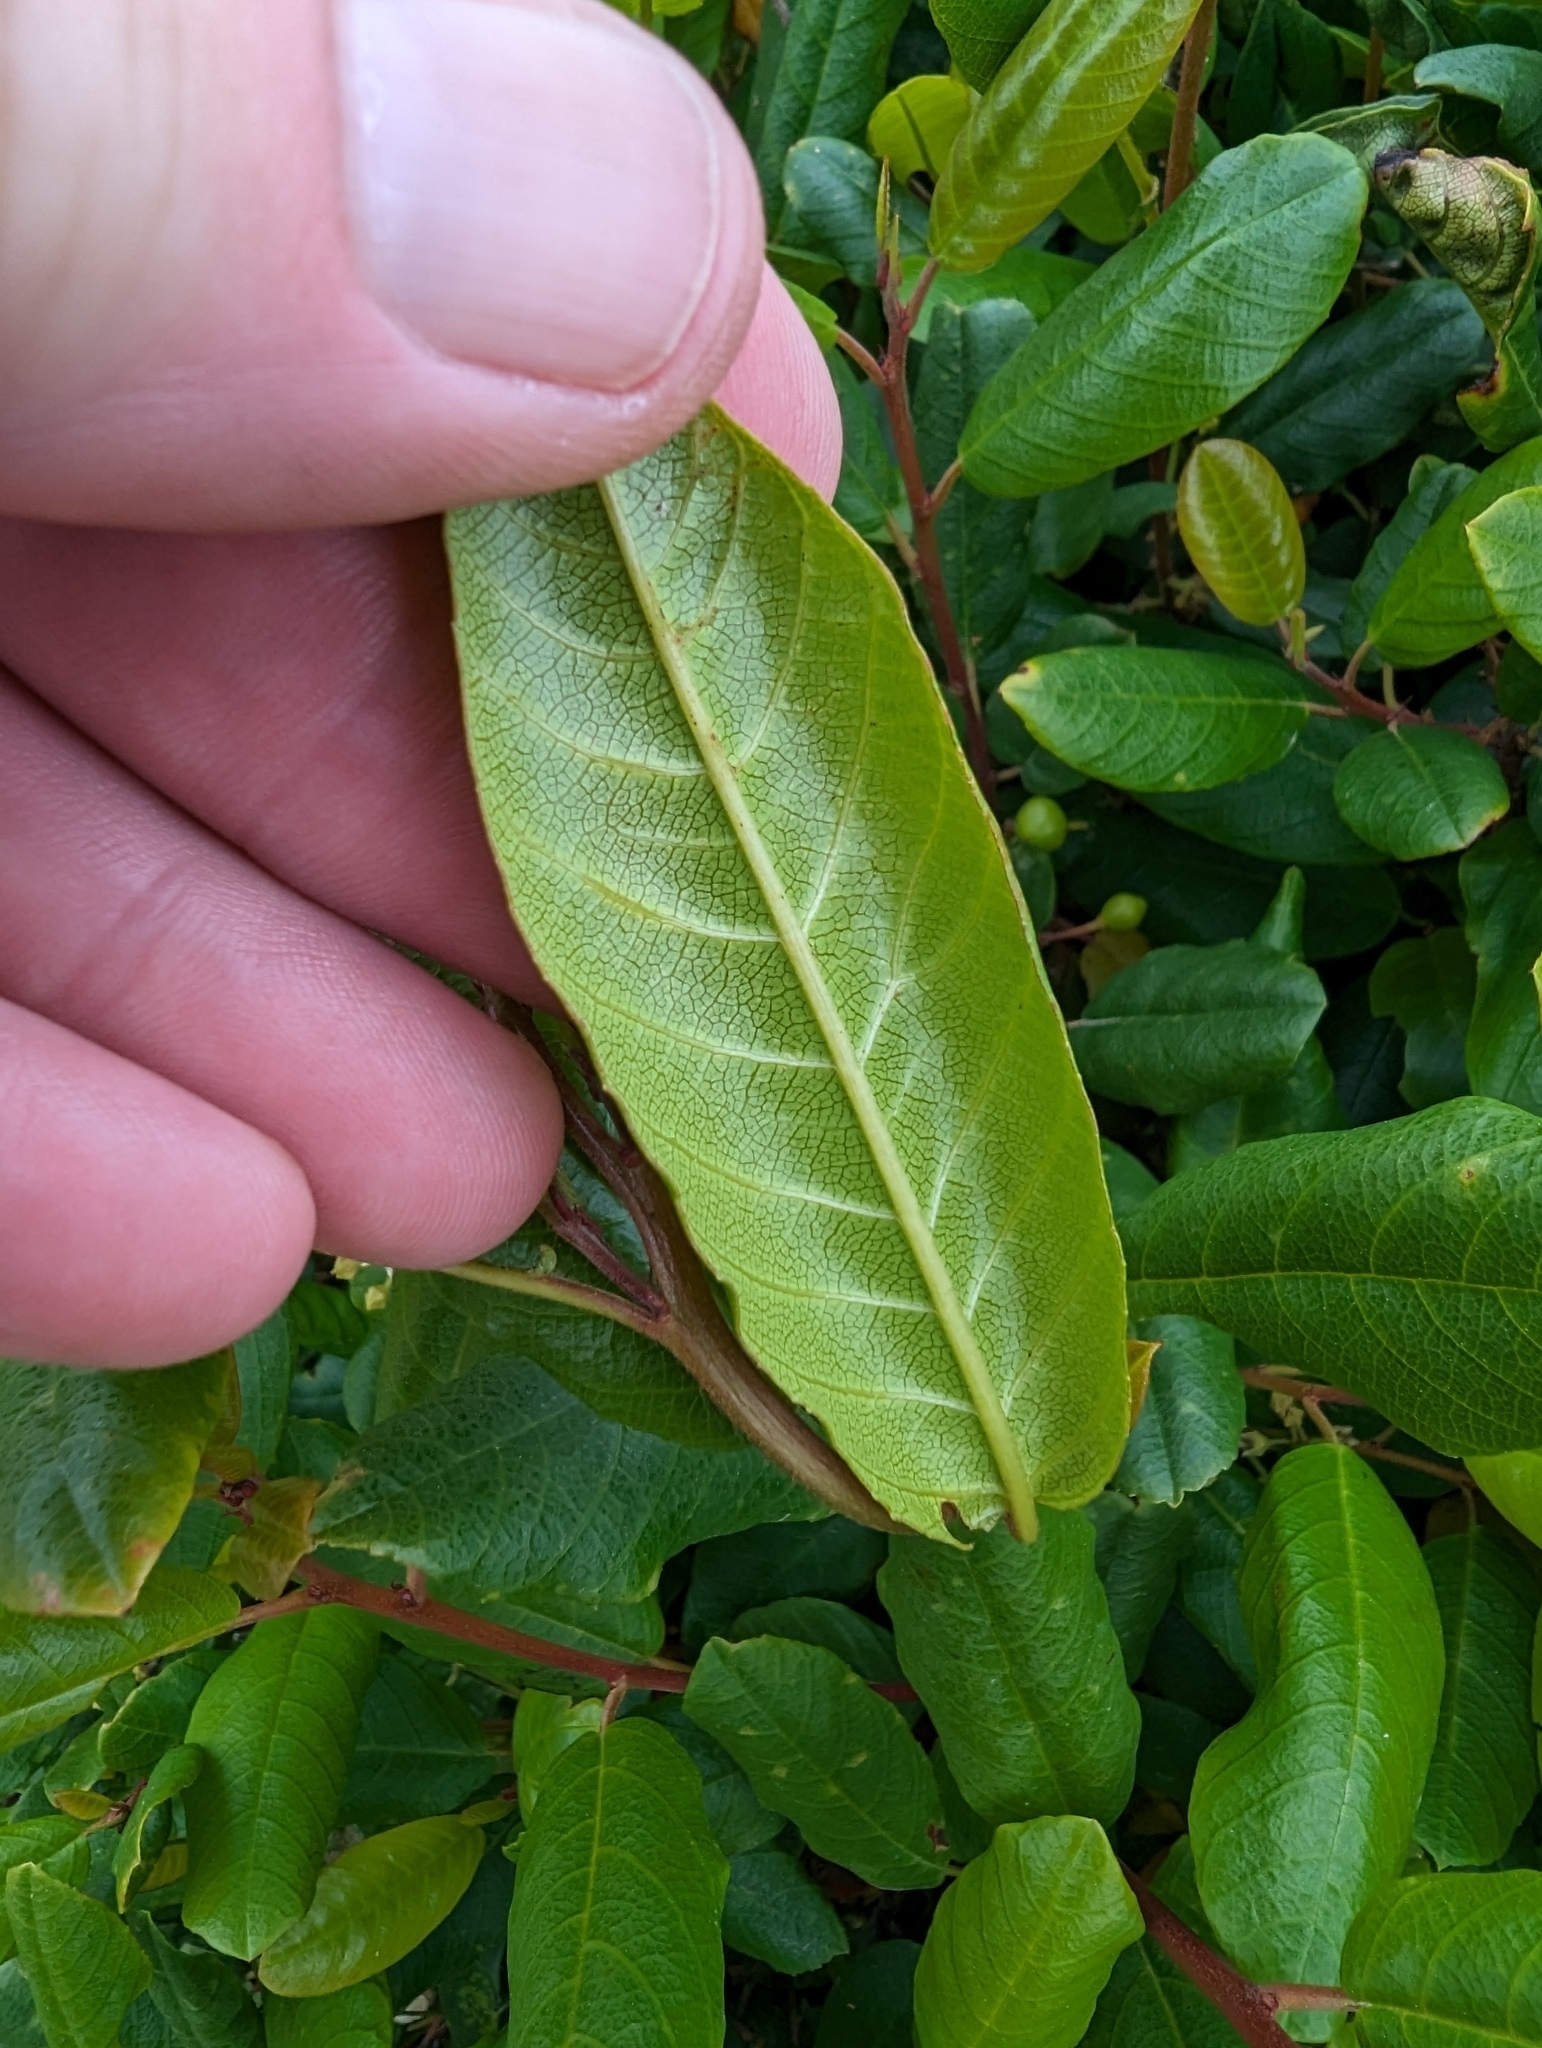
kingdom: Plantae
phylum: Tracheophyta
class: Magnoliopsida
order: Rosales
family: Rhamnaceae
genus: Frangula
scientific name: Frangula californica
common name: California buckthorn
